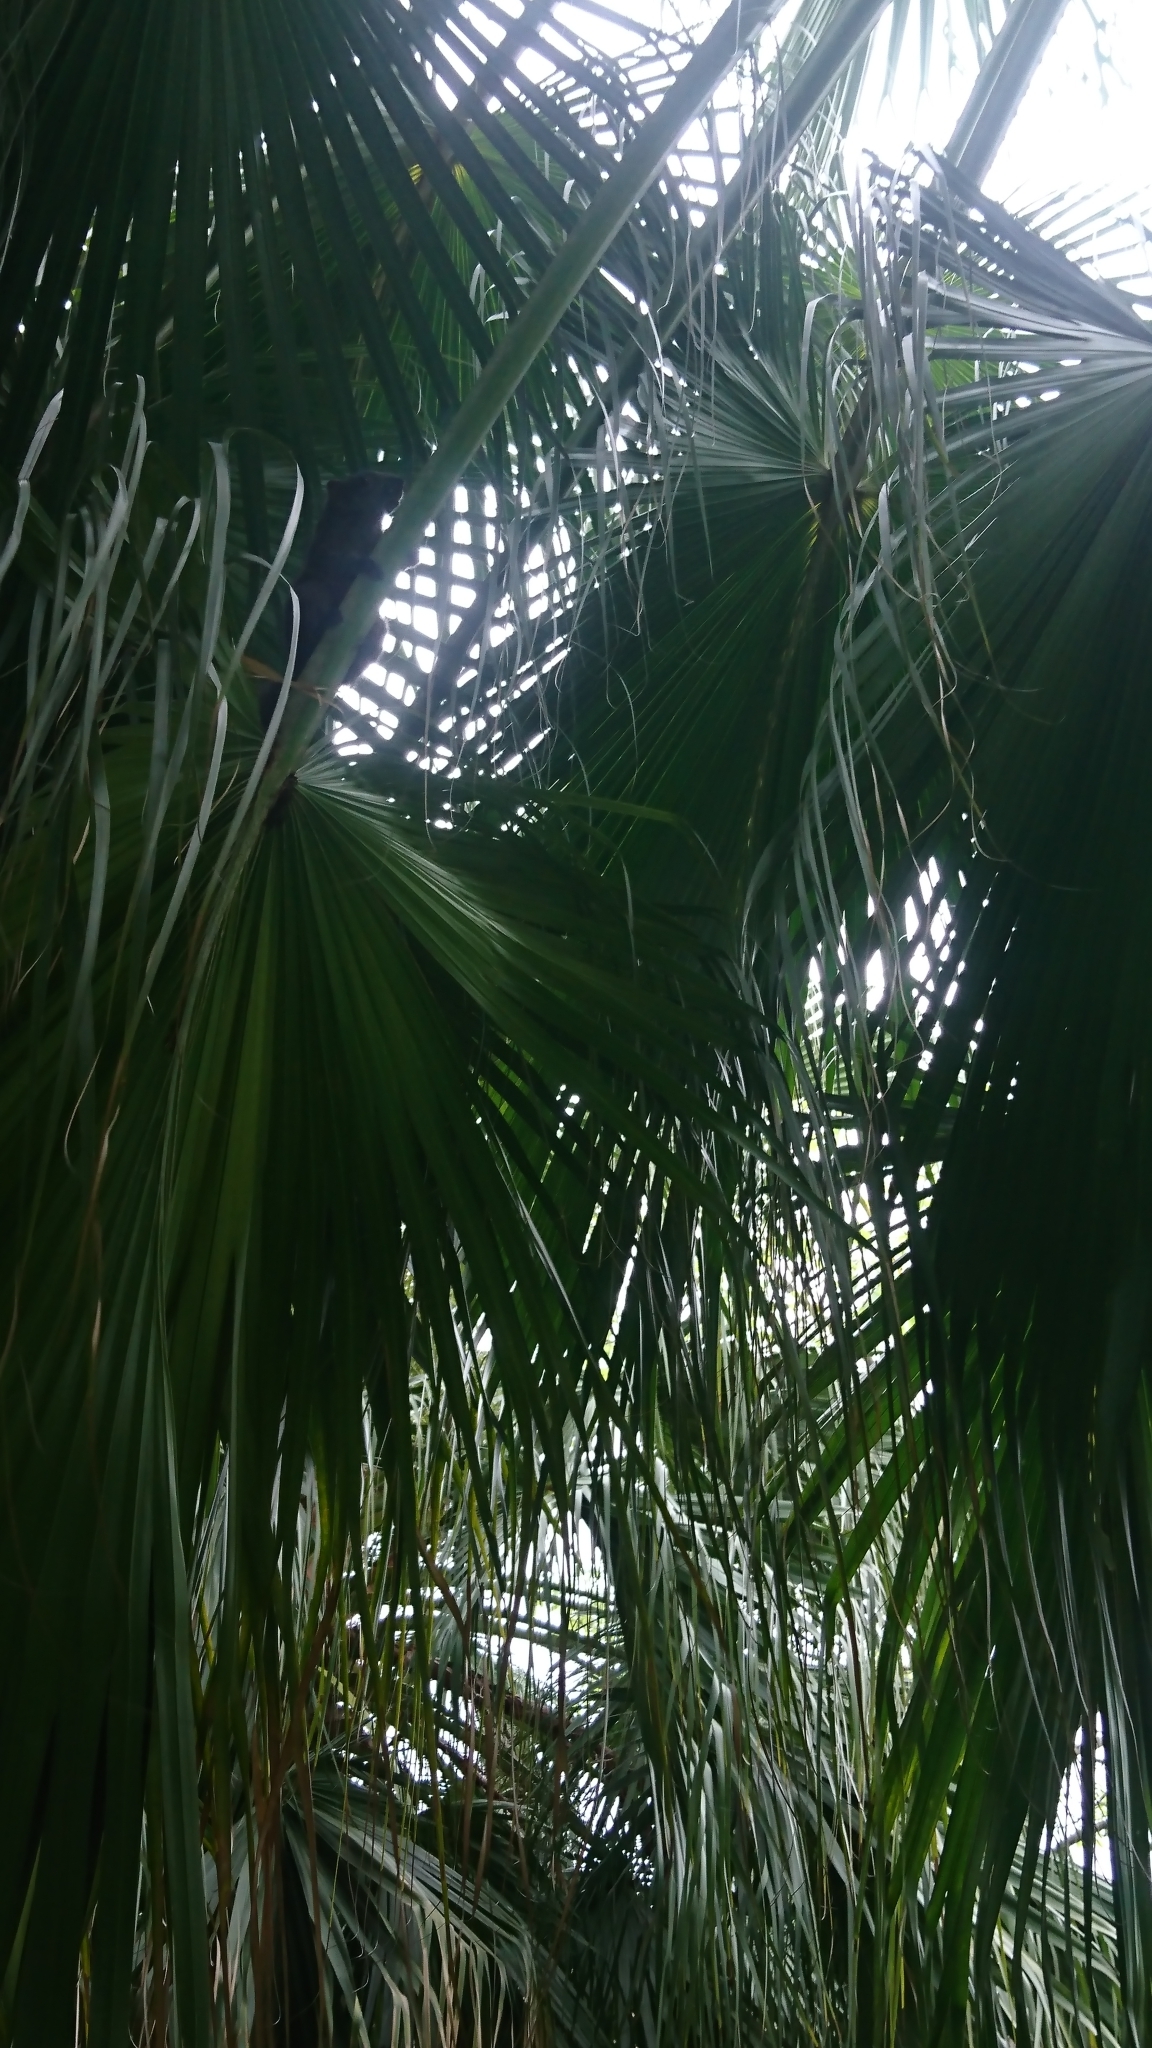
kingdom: Animalia
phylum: Chordata
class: Mammalia
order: Rodentia
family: Sciuridae
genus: Callosciurus
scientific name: Callosciurus erythraeus
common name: Pallas's squirrel
